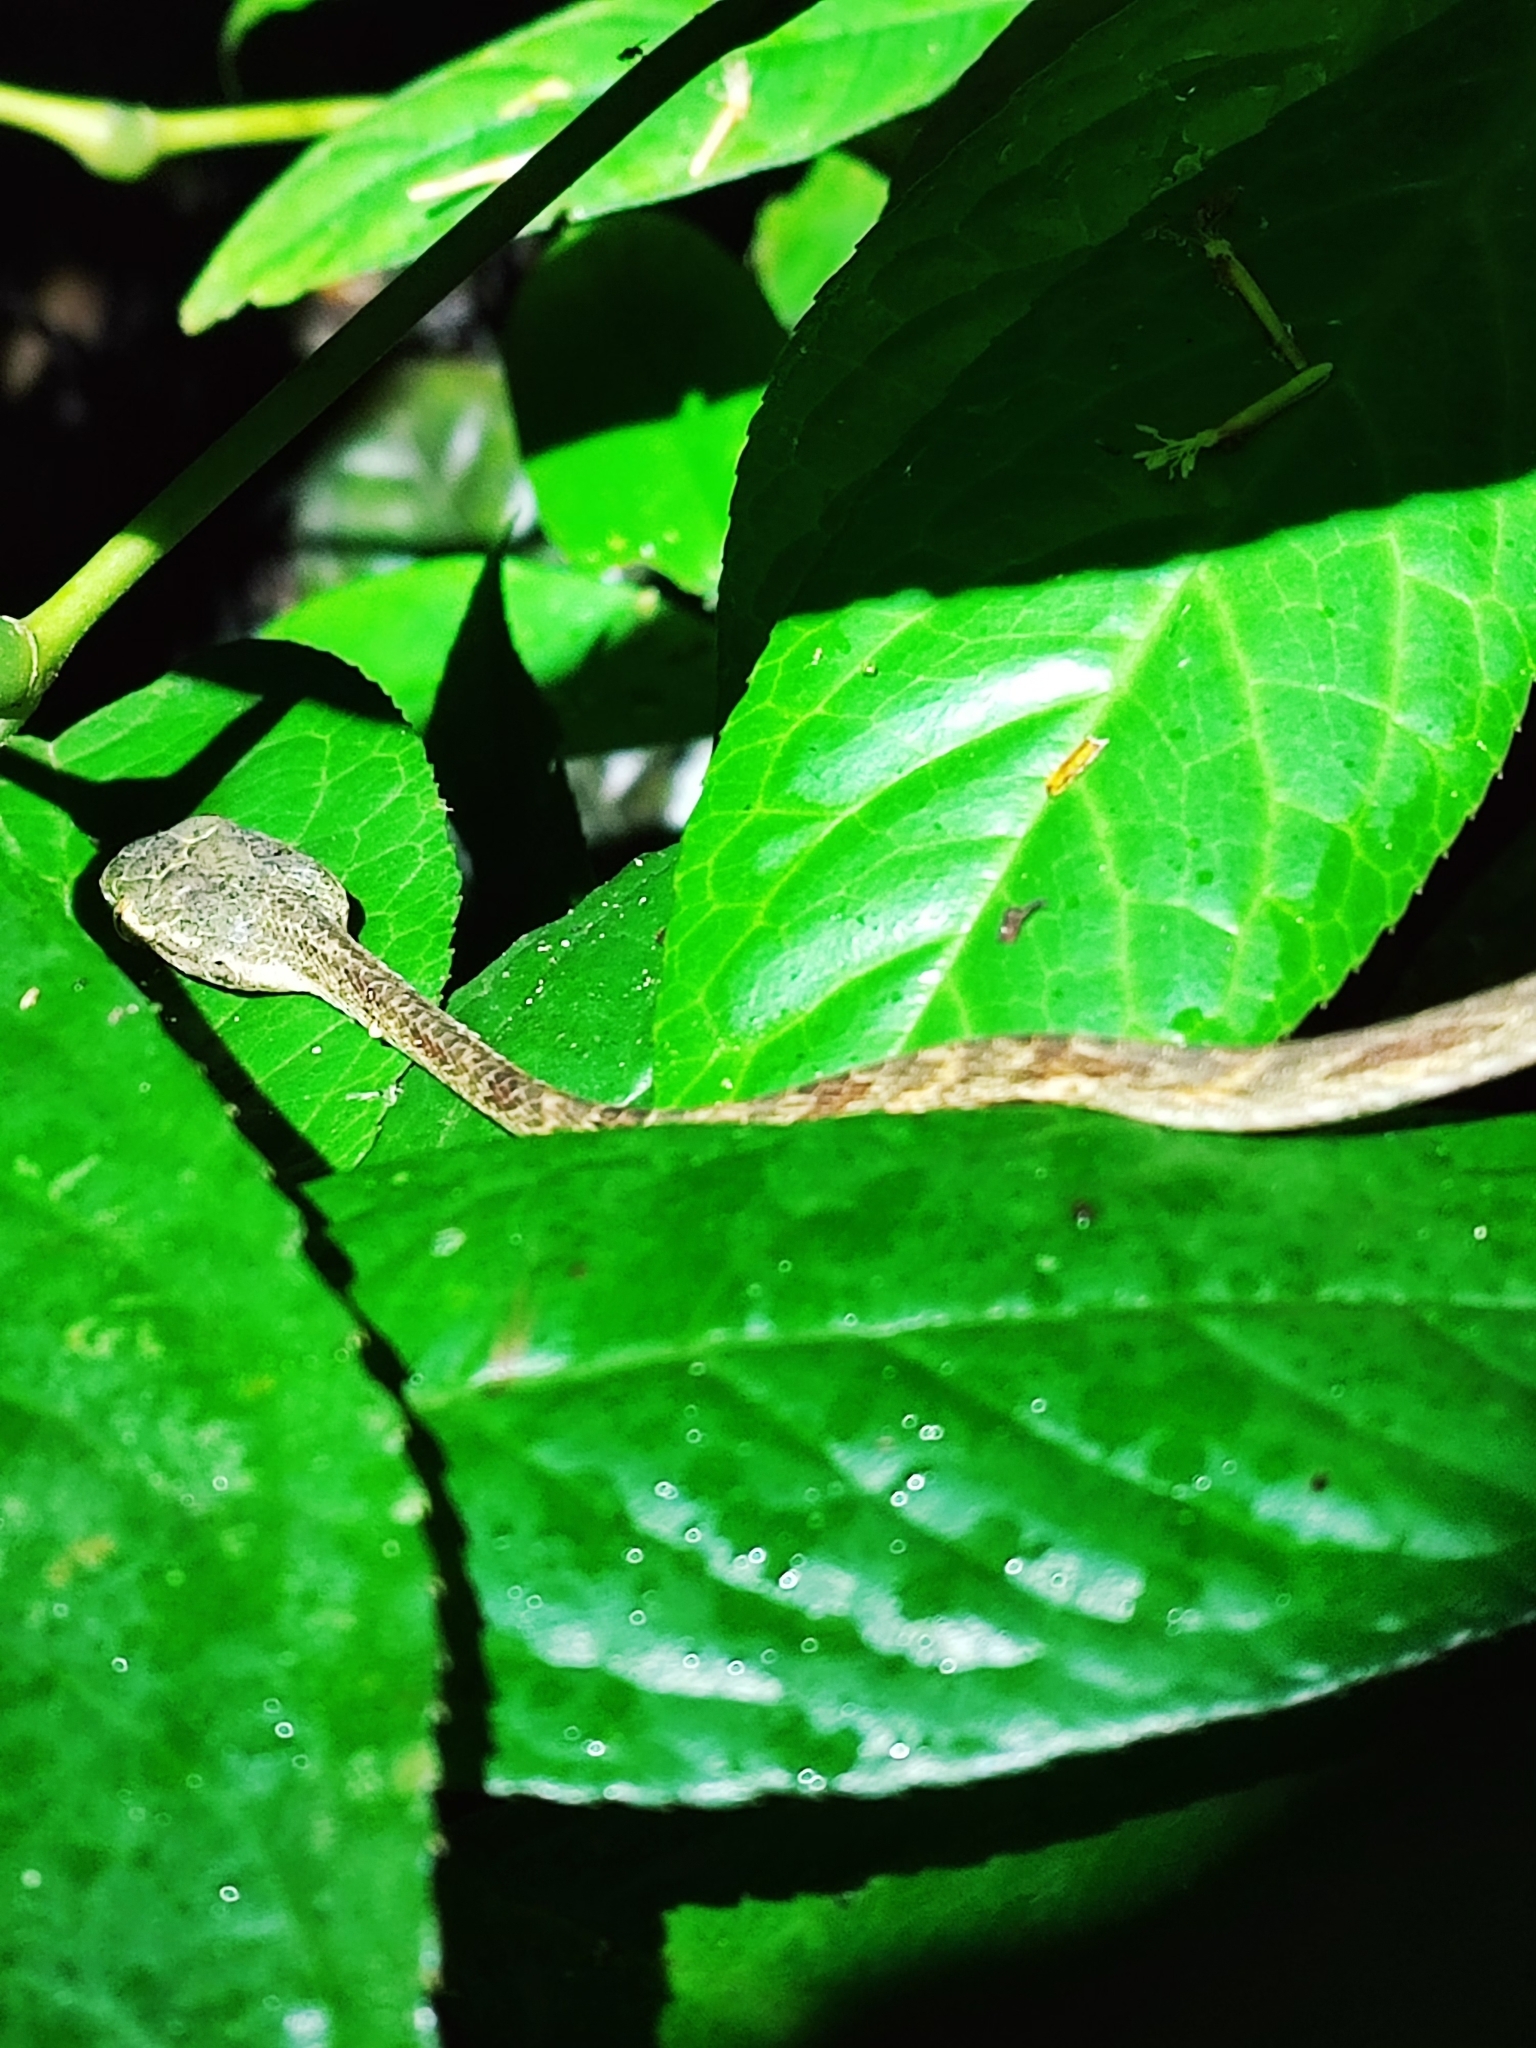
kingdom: Animalia
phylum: Chordata
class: Squamata
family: Colubridae
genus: Boiga
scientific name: Boiga bengkuluensis
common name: Bengkulu cat snake
